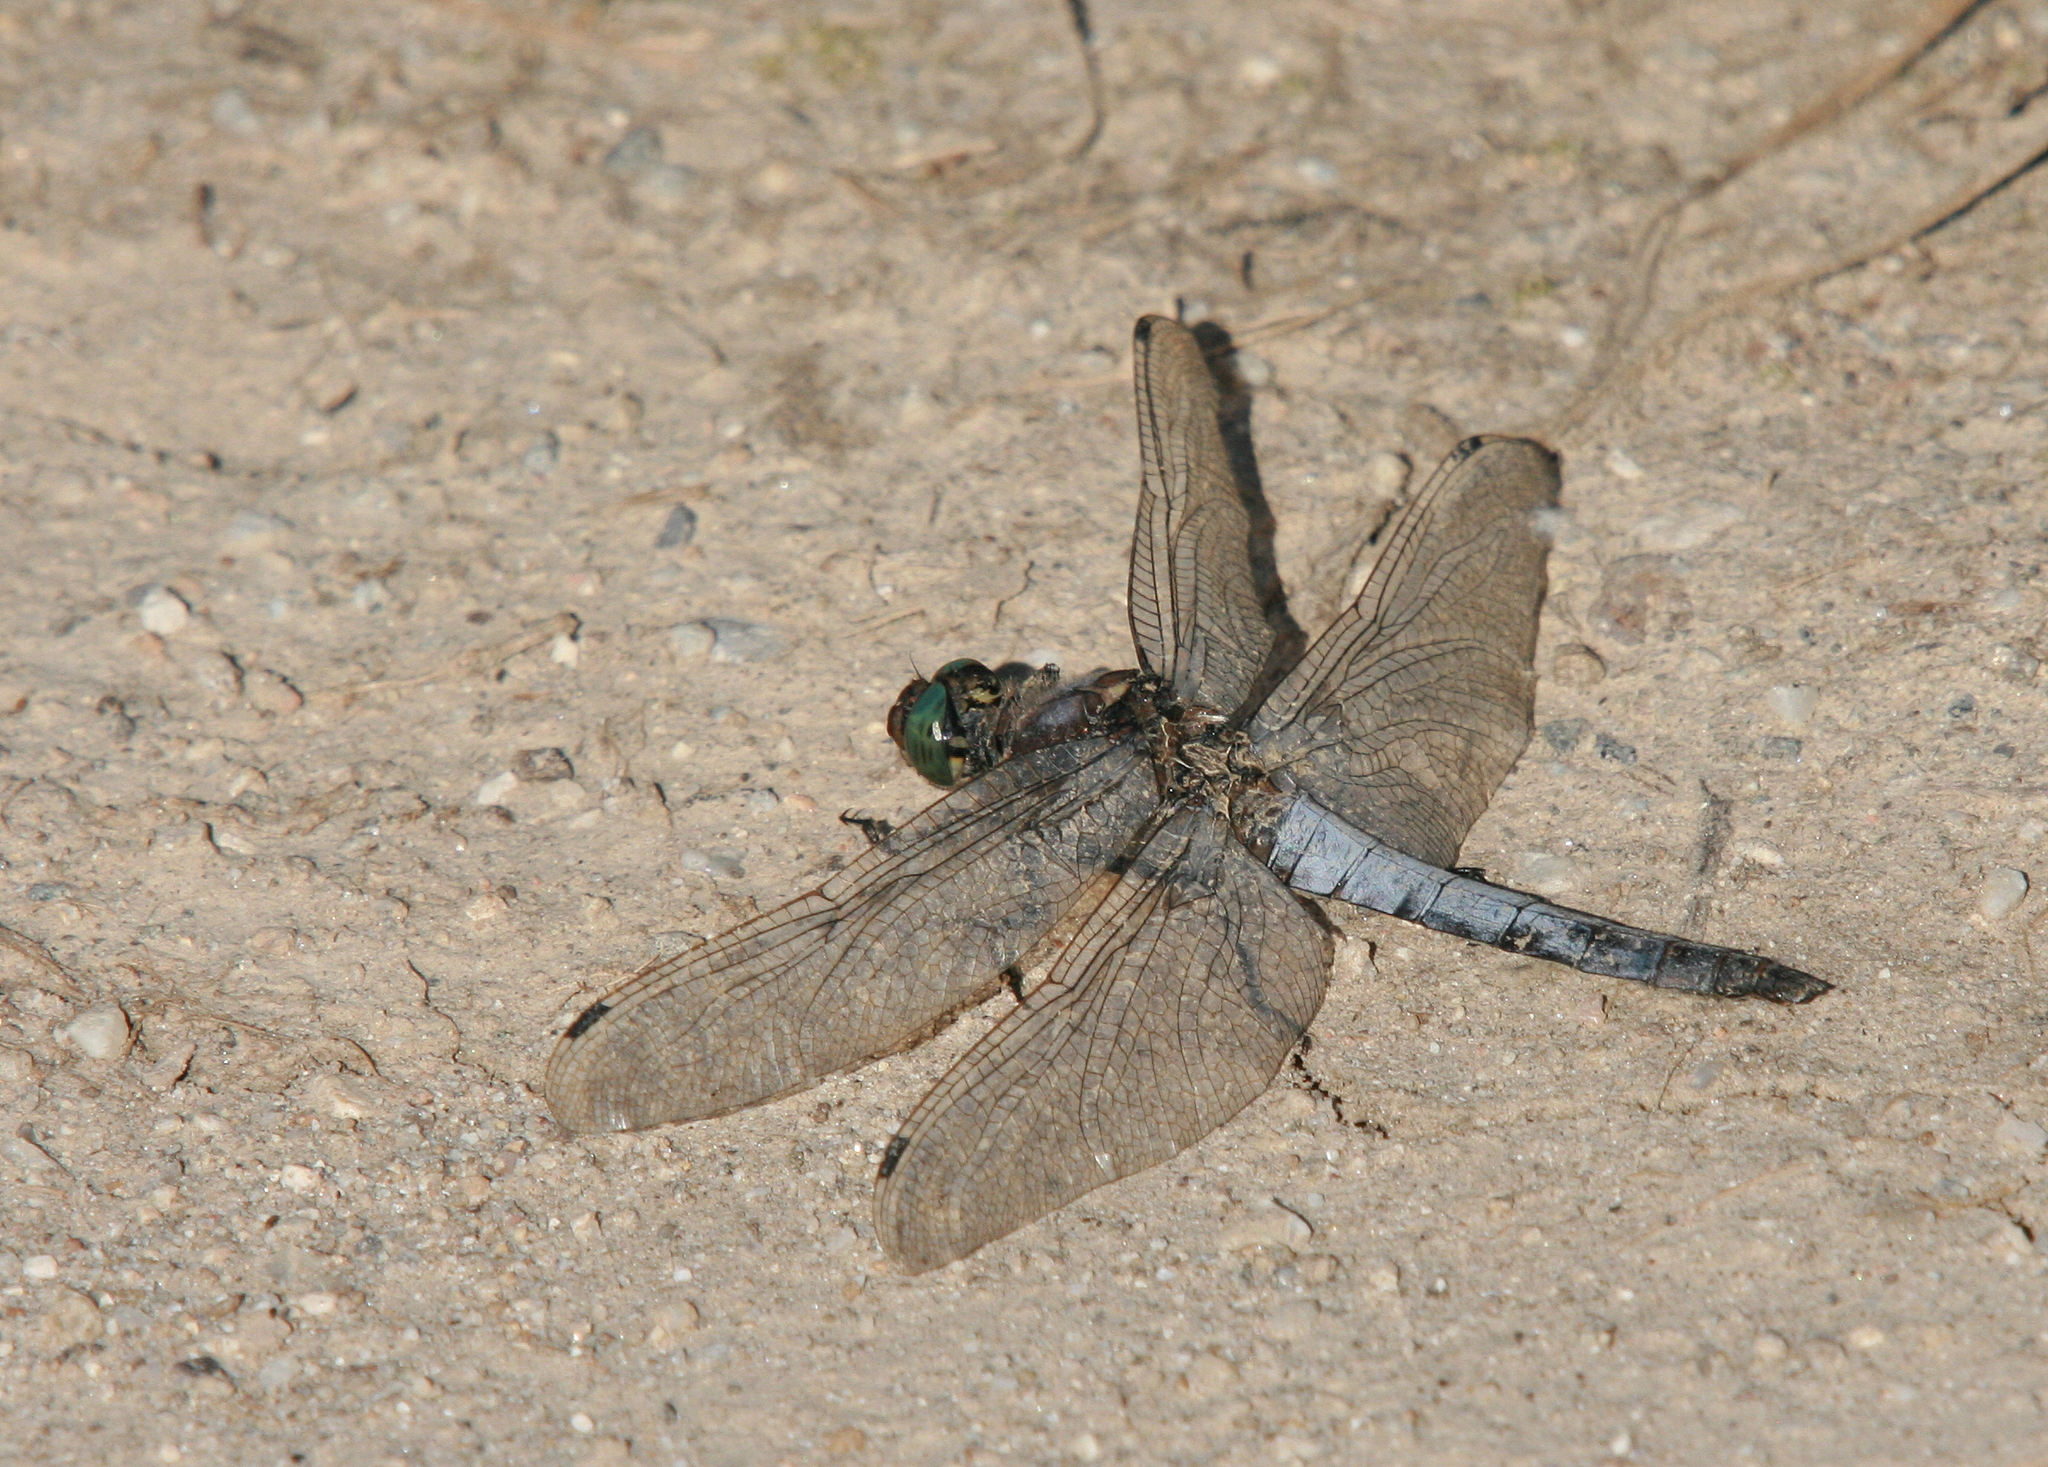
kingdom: Animalia
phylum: Arthropoda
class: Insecta
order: Odonata
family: Libellulidae
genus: Orthetrum
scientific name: Orthetrum cancellatum
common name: Black-tailed skimmer
